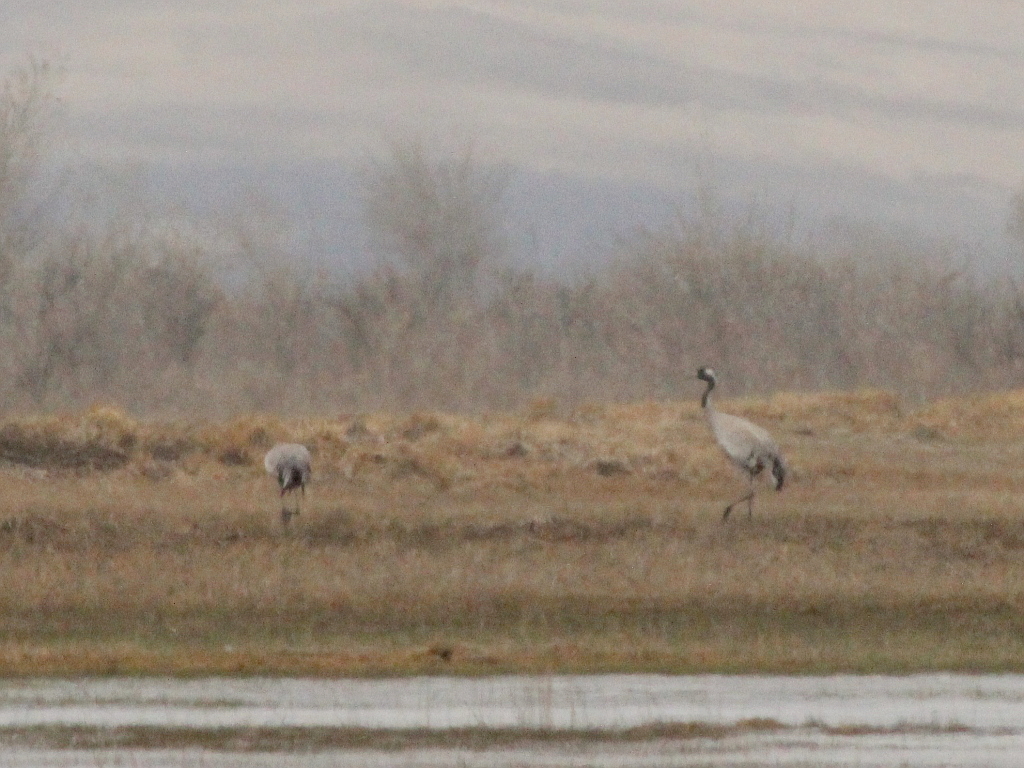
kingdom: Animalia
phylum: Chordata
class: Aves
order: Gruiformes
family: Gruidae
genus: Grus
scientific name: Grus grus
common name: Common crane
